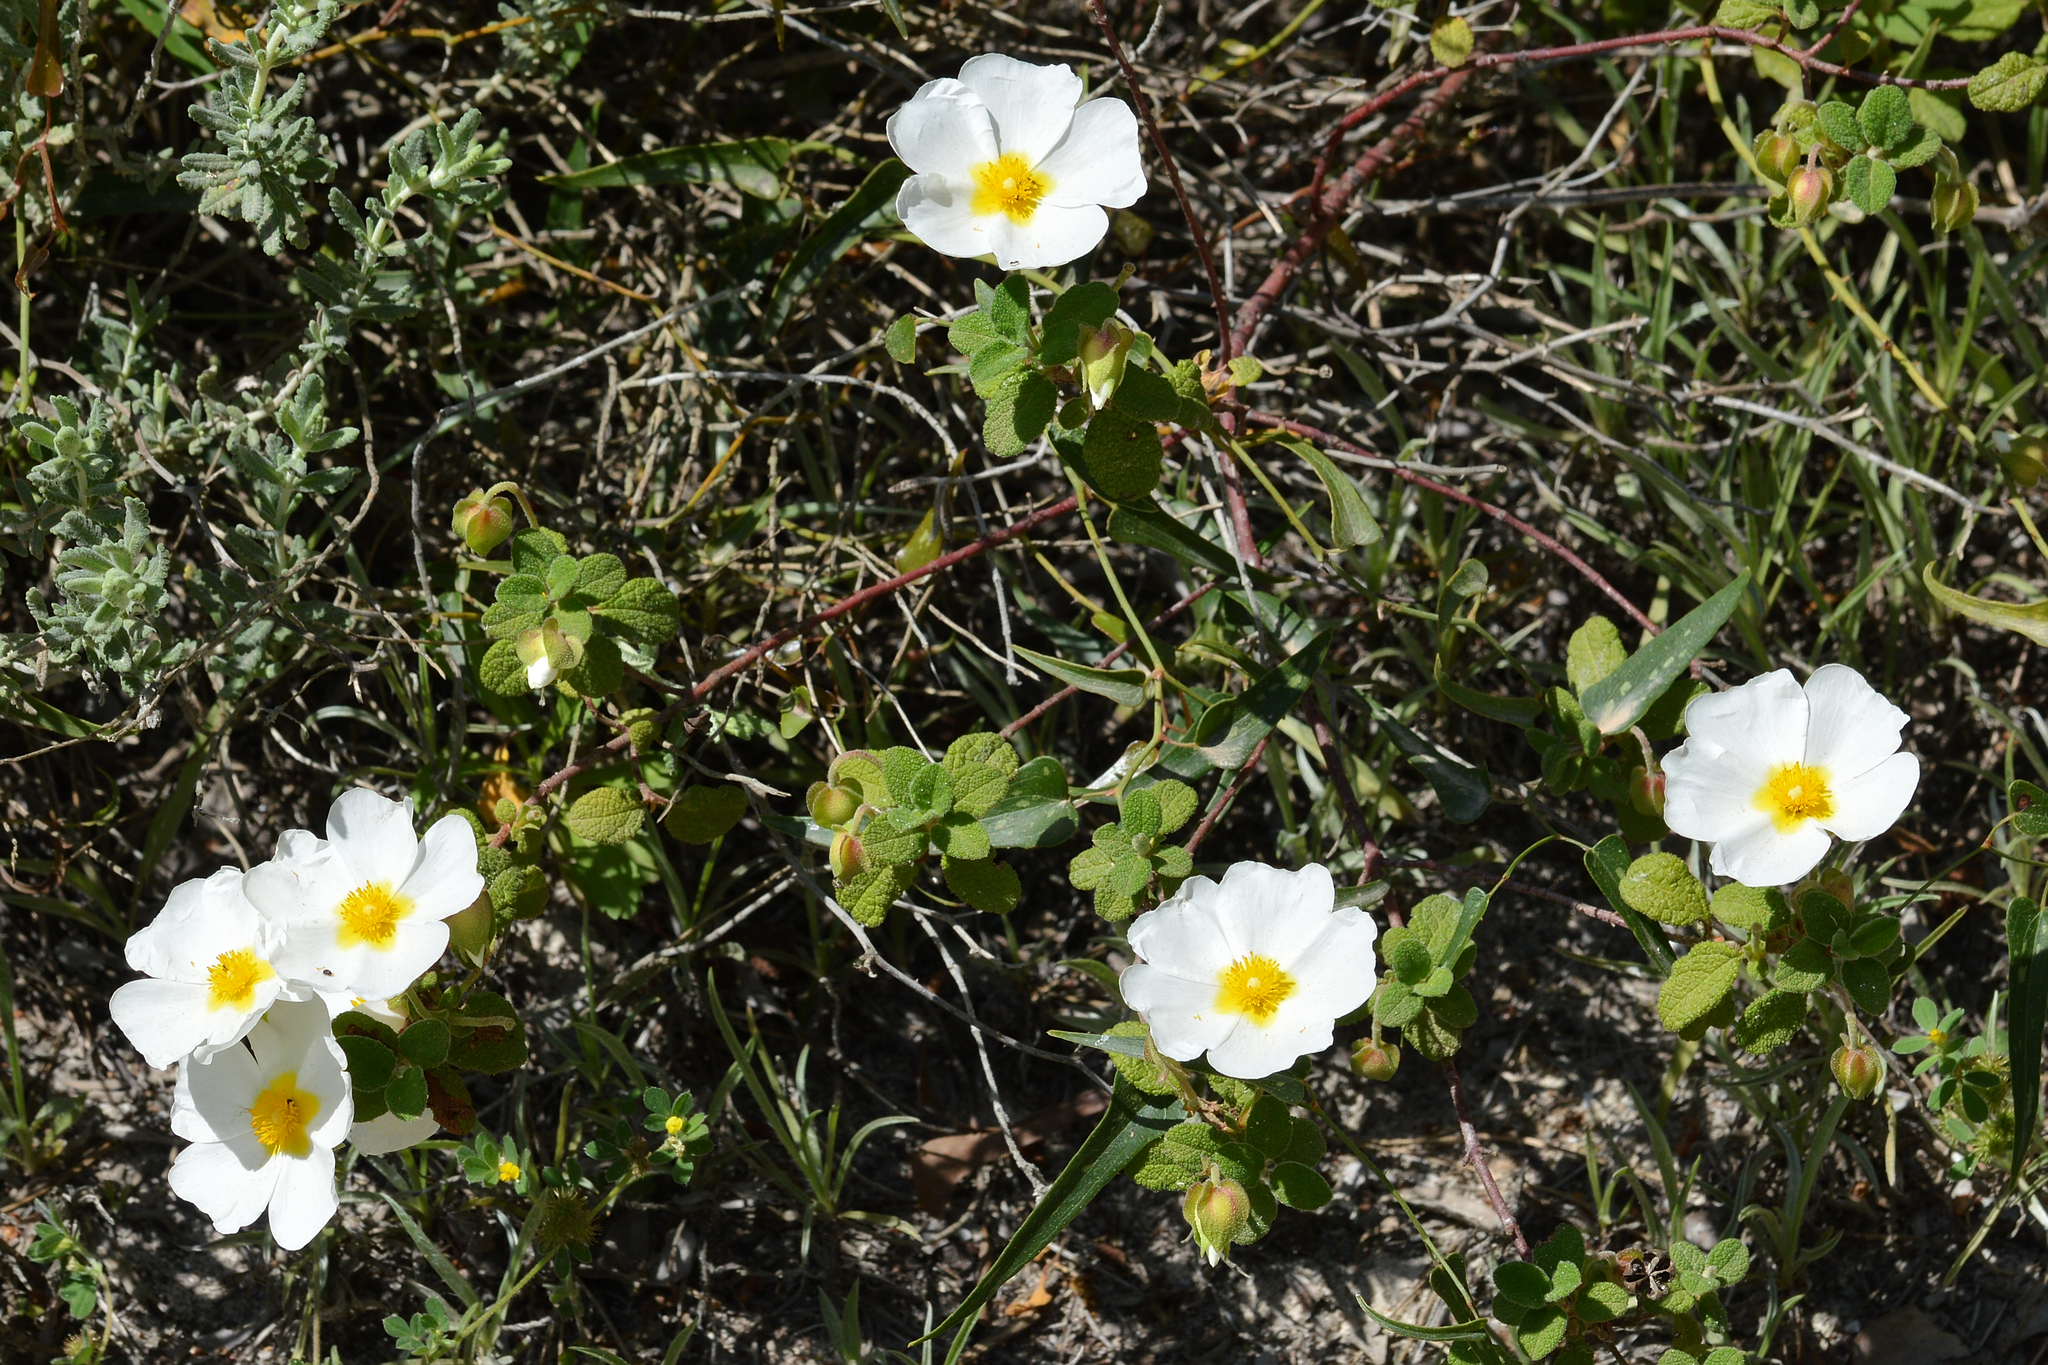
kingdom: Plantae
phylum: Tracheophyta
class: Magnoliopsida
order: Malvales
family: Cistaceae
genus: Cistus
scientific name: Cistus salviifolius
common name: Salvia cistus
